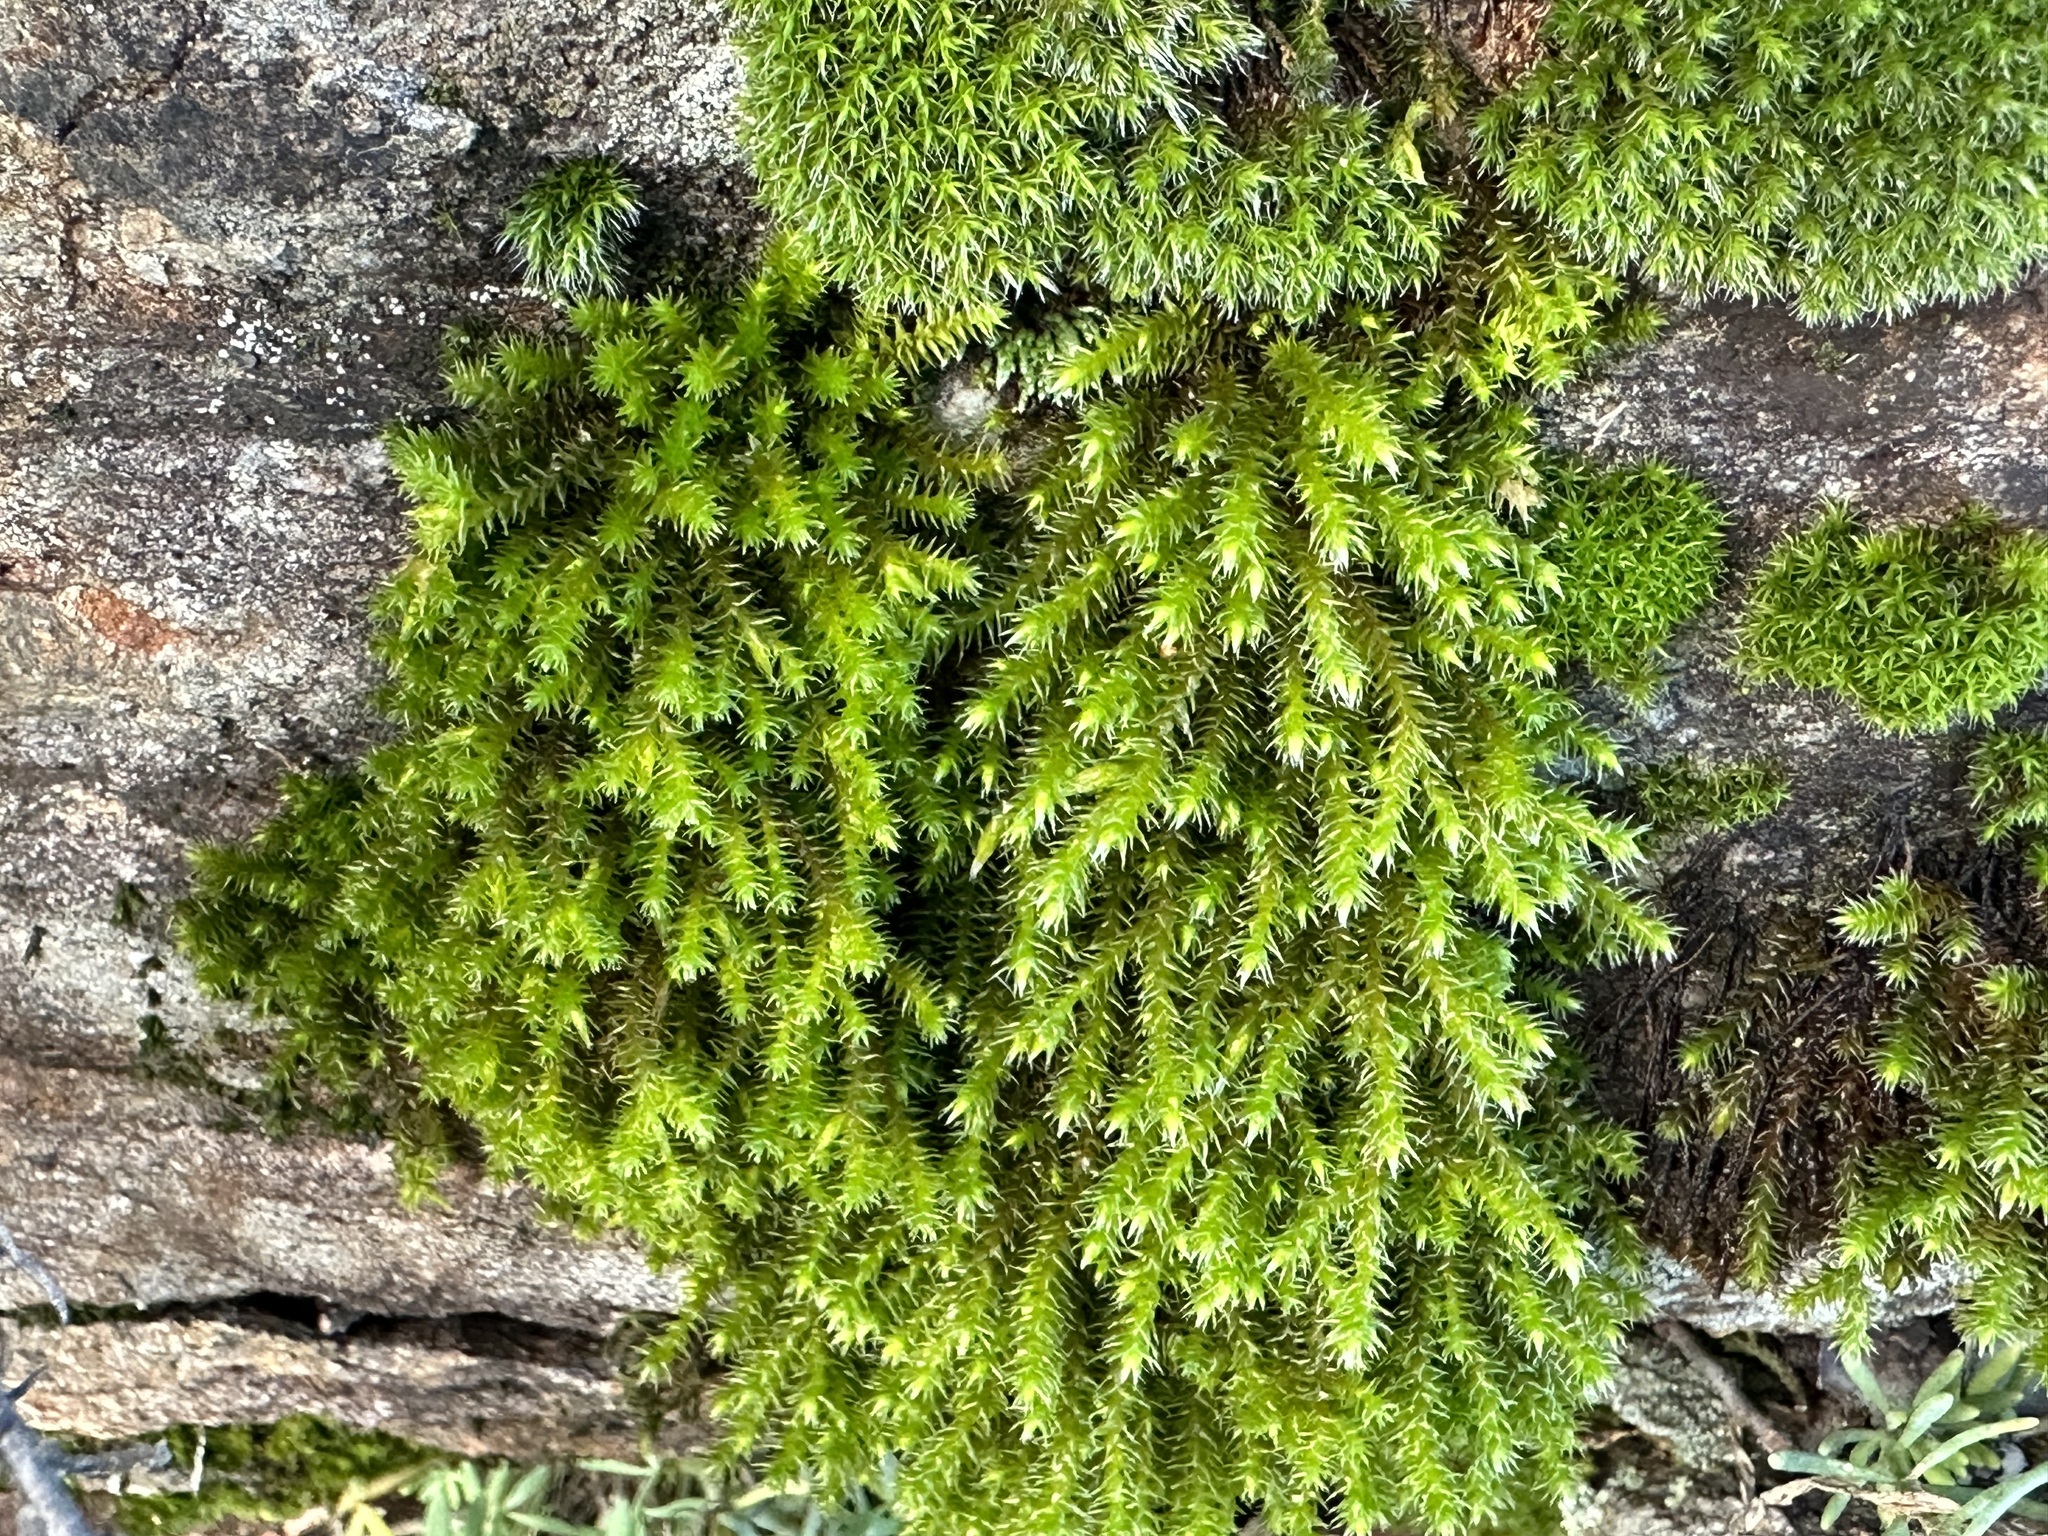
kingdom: Plantae
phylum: Bryophyta
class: Bryopsida
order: Hedwigiales
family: Hedwigiaceae
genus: Hedwigia
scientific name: Hedwigia ciliata
